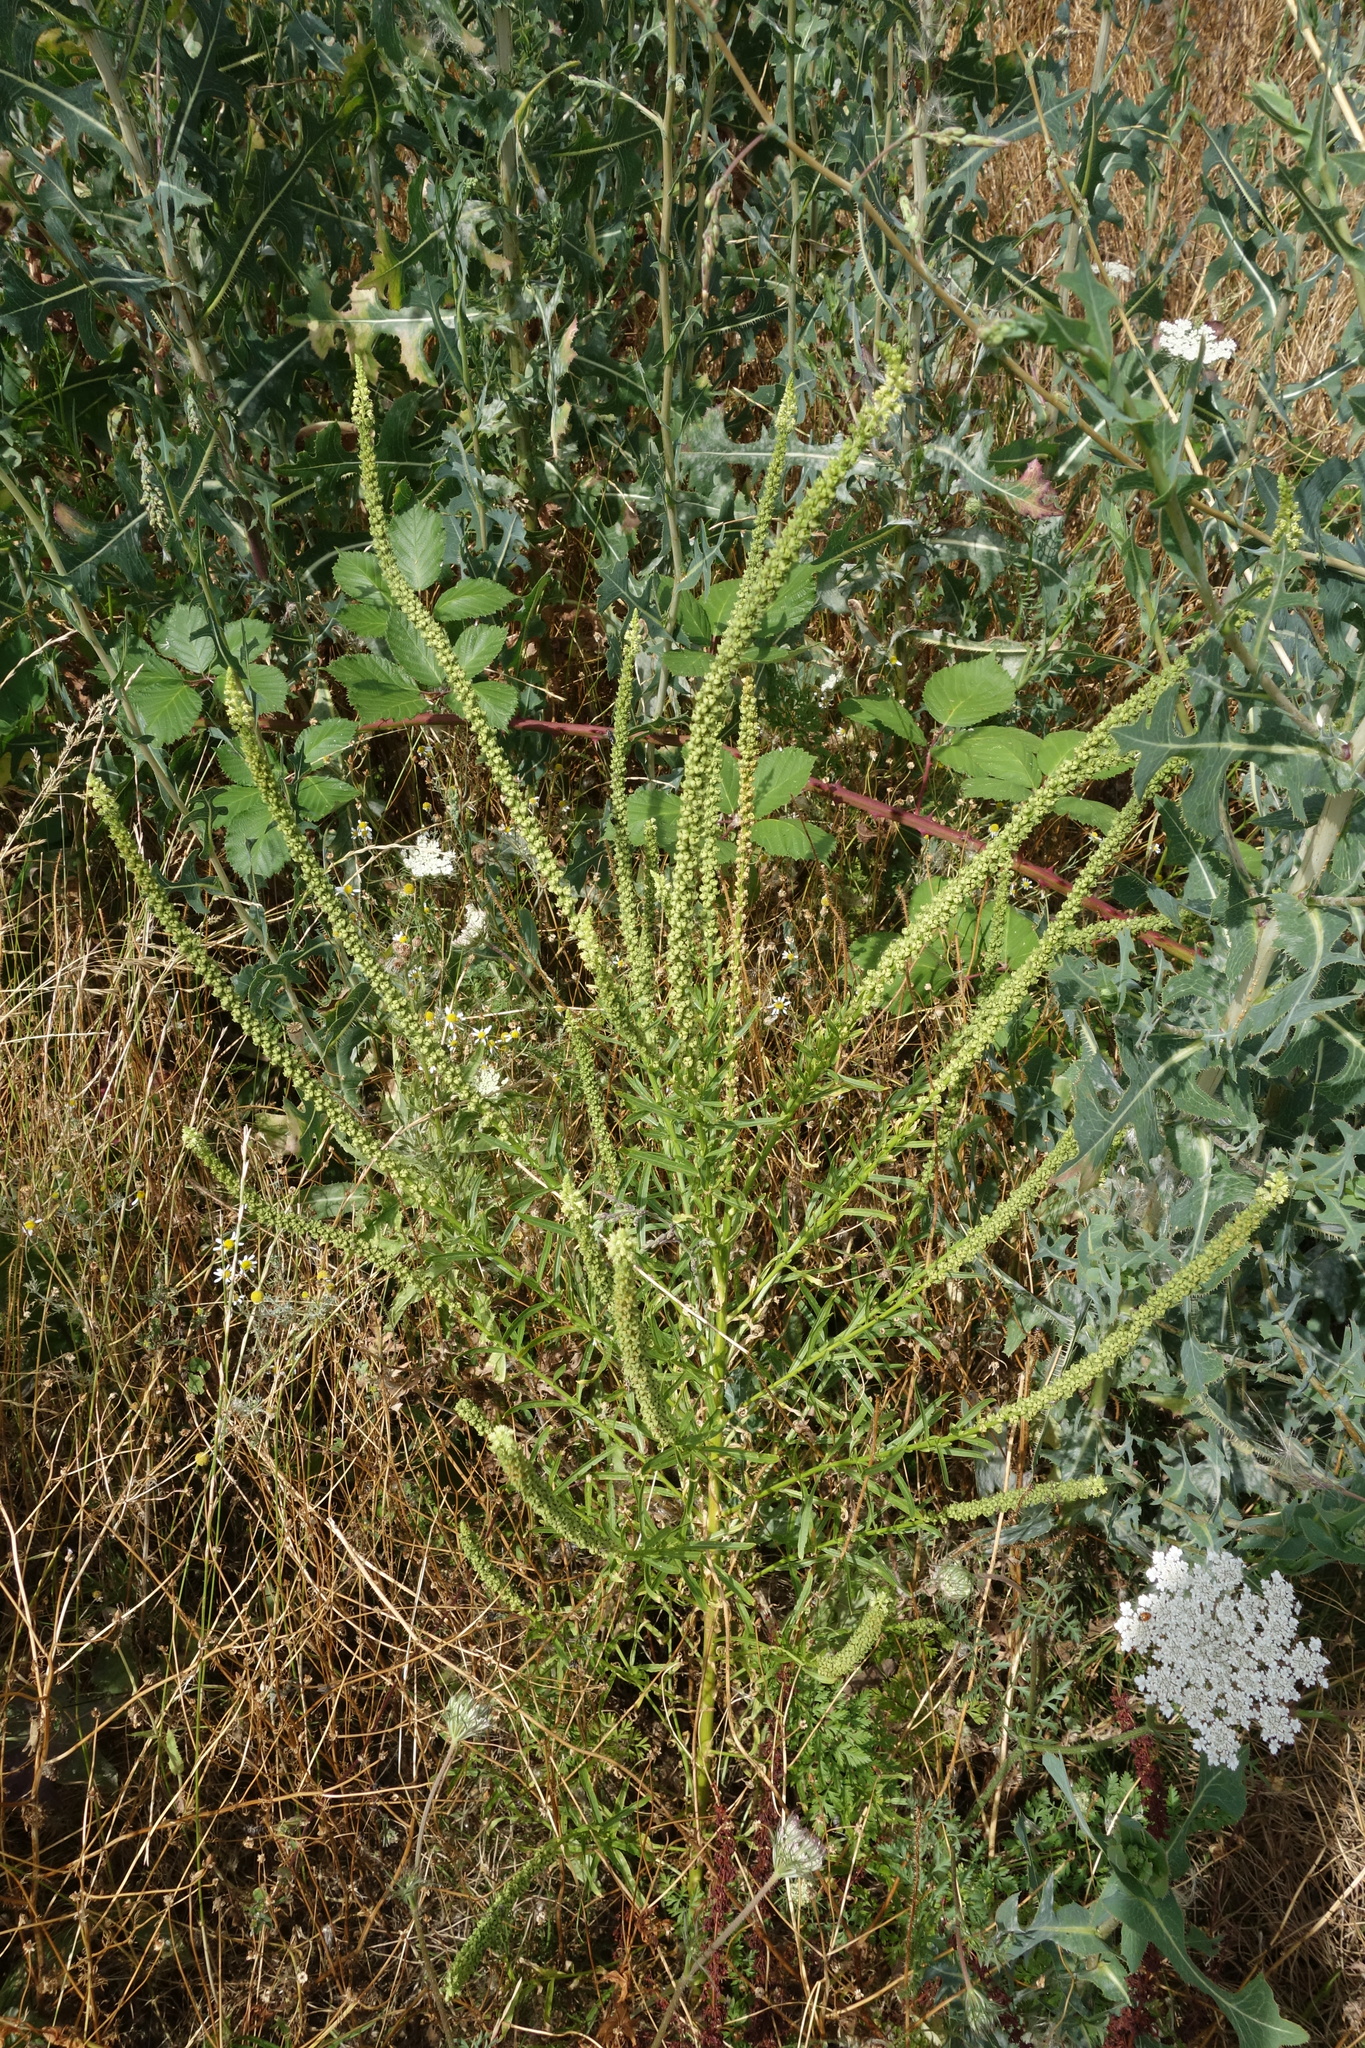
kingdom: Plantae
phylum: Tracheophyta
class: Magnoliopsida
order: Brassicales
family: Resedaceae
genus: Reseda
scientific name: Reseda luteola
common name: Weld
